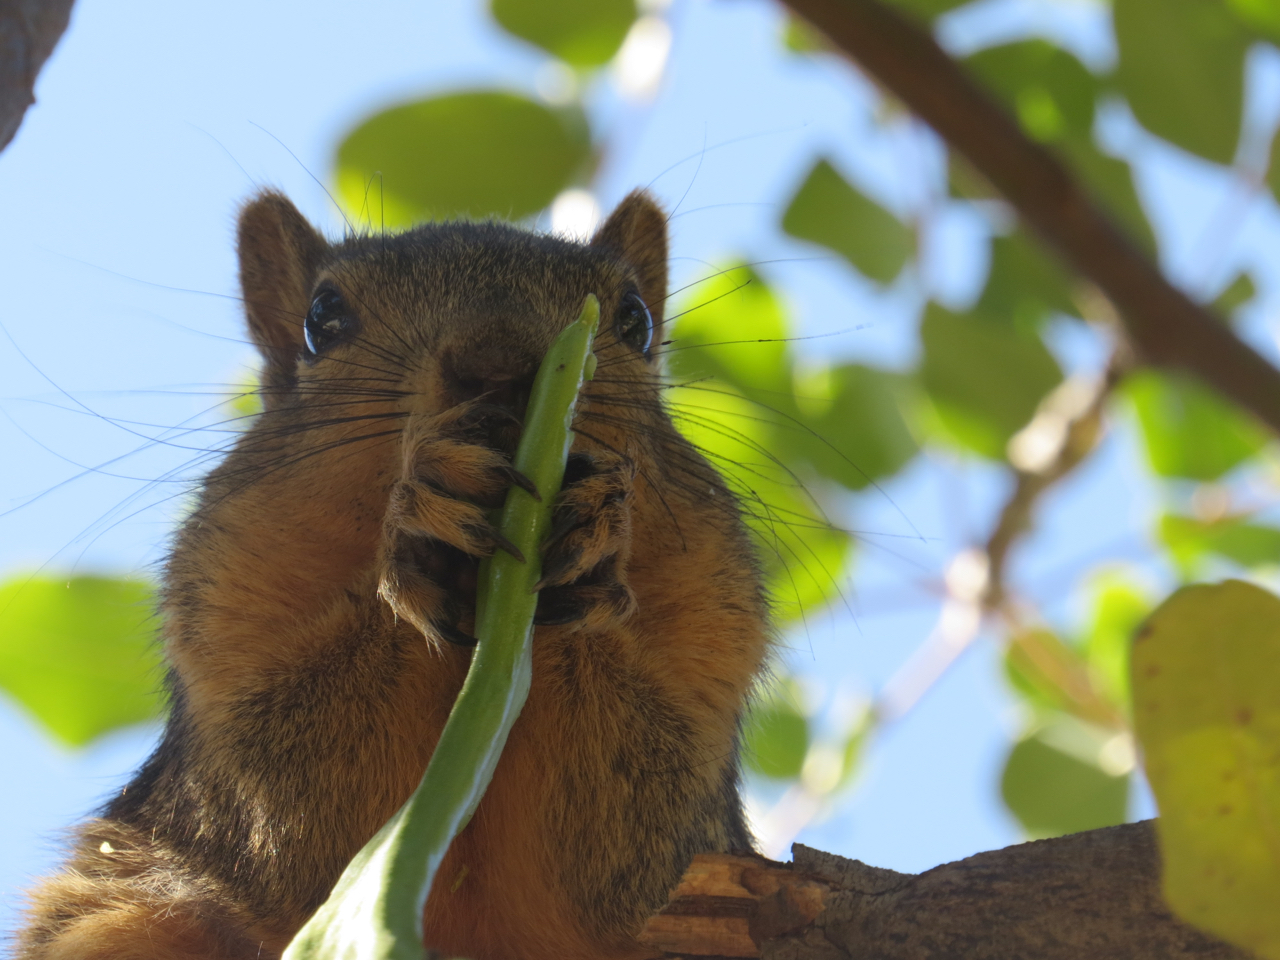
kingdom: Animalia
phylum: Chordata
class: Mammalia
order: Rodentia
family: Sciuridae
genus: Sciurus
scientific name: Sciurus niger
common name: Fox squirrel
